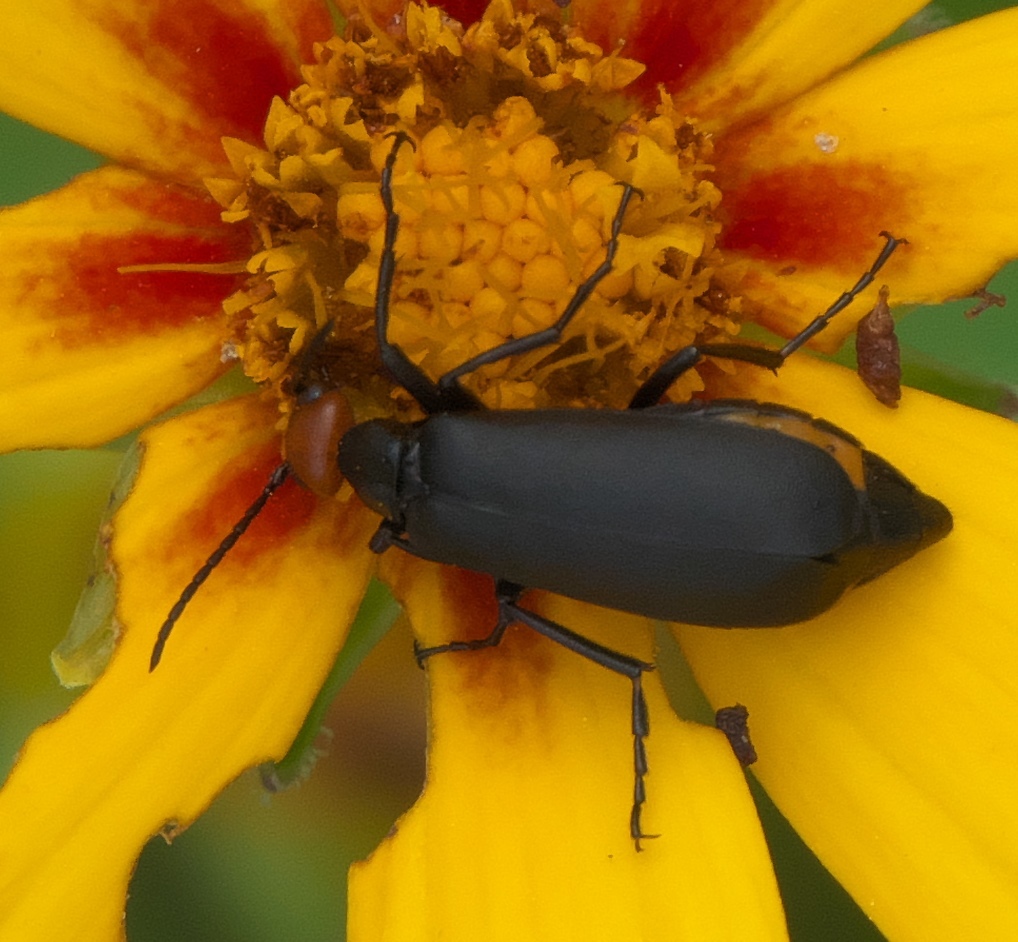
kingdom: Animalia
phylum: Arthropoda
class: Insecta
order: Coleoptera
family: Meloidae
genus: Epicauta
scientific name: Epicauta atrata
